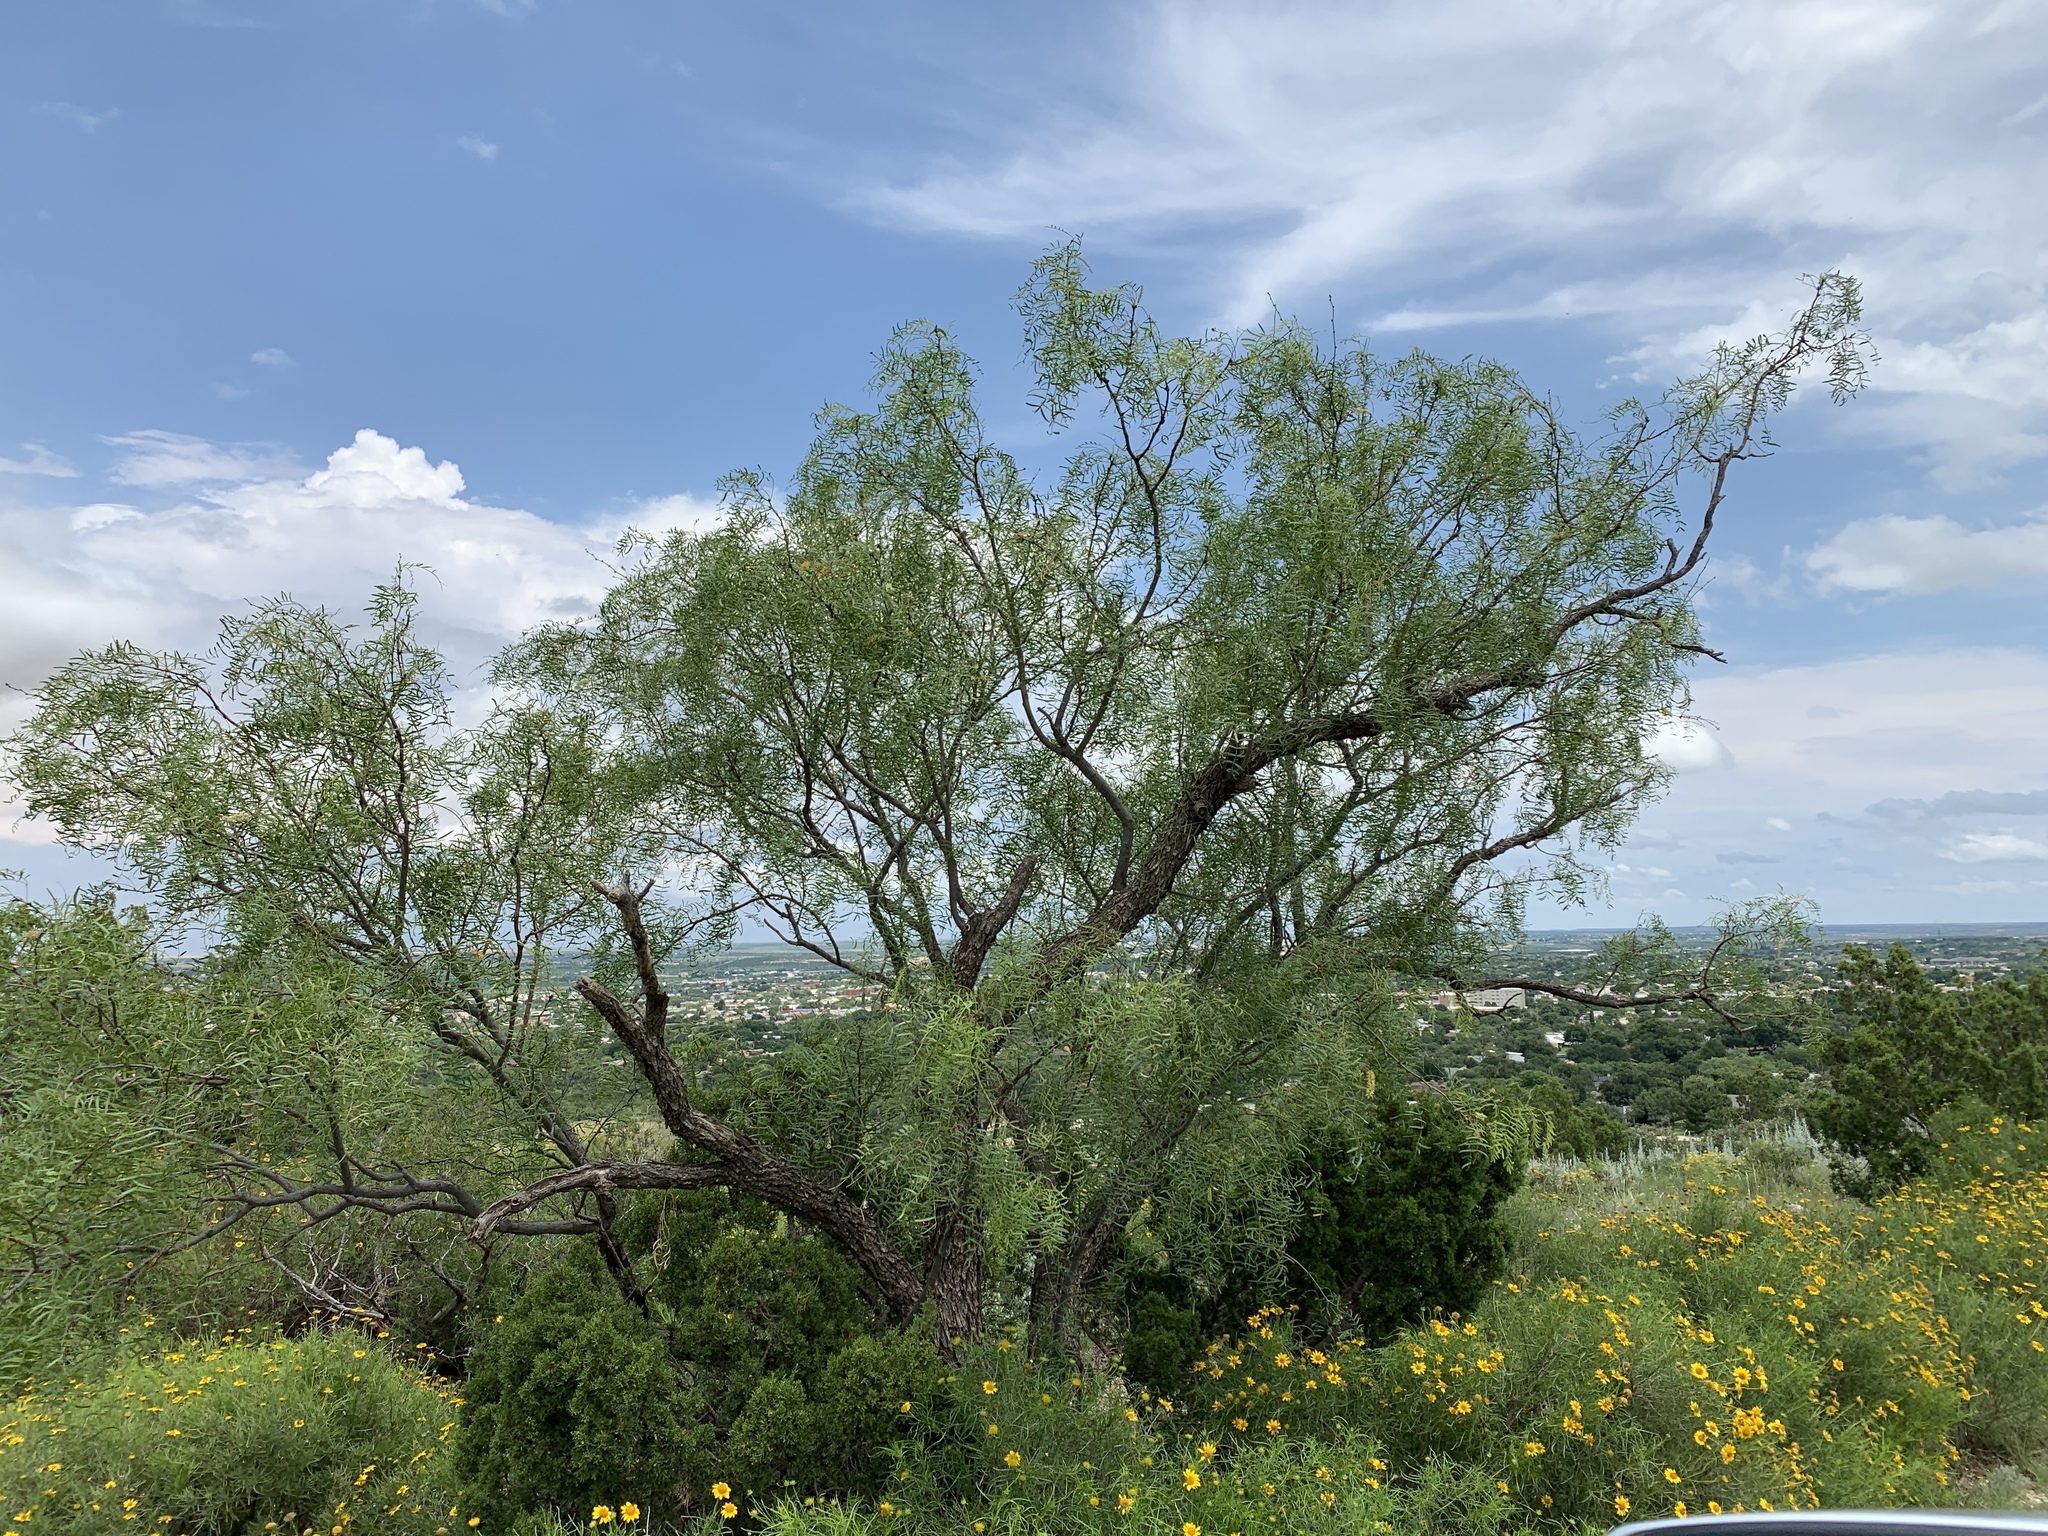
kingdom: Plantae
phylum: Tracheophyta
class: Magnoliopsida
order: Fabales
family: Fabaceae
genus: Prosopis
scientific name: Prosopis glandulosa
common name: Honey mesquite
